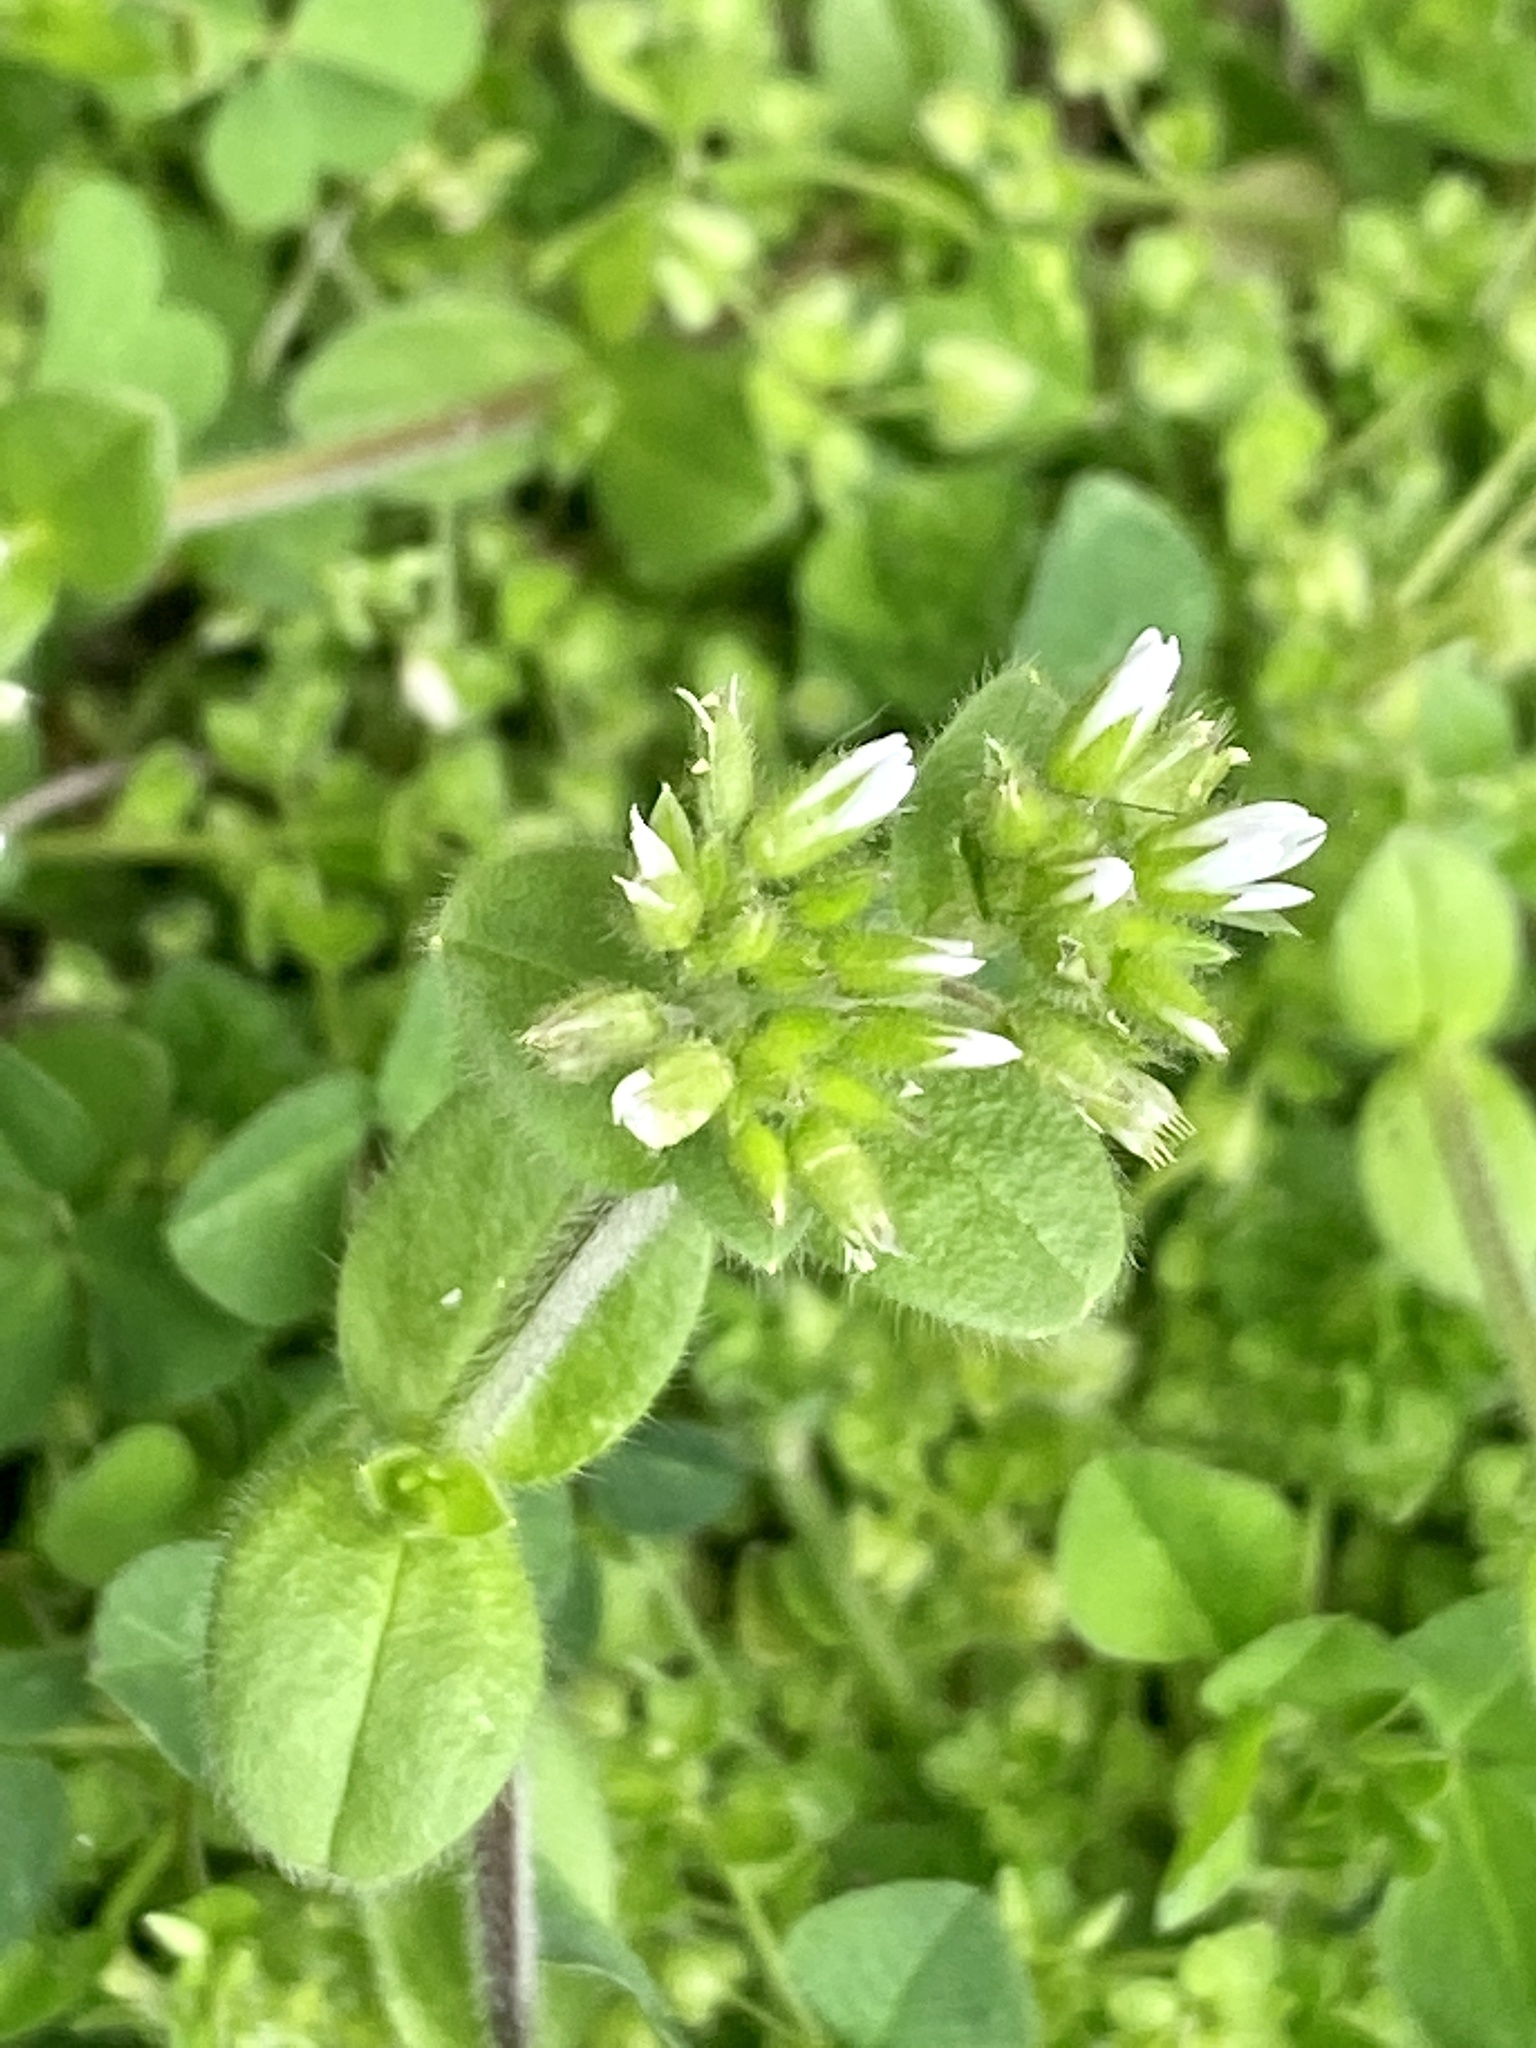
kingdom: Plantae
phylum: Tracheophyta
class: Magnoliopsida
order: Caryophyllales
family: Caryophyllaceae
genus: Cerastium
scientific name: Cerastium glomeratum
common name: Sticky chickweed
